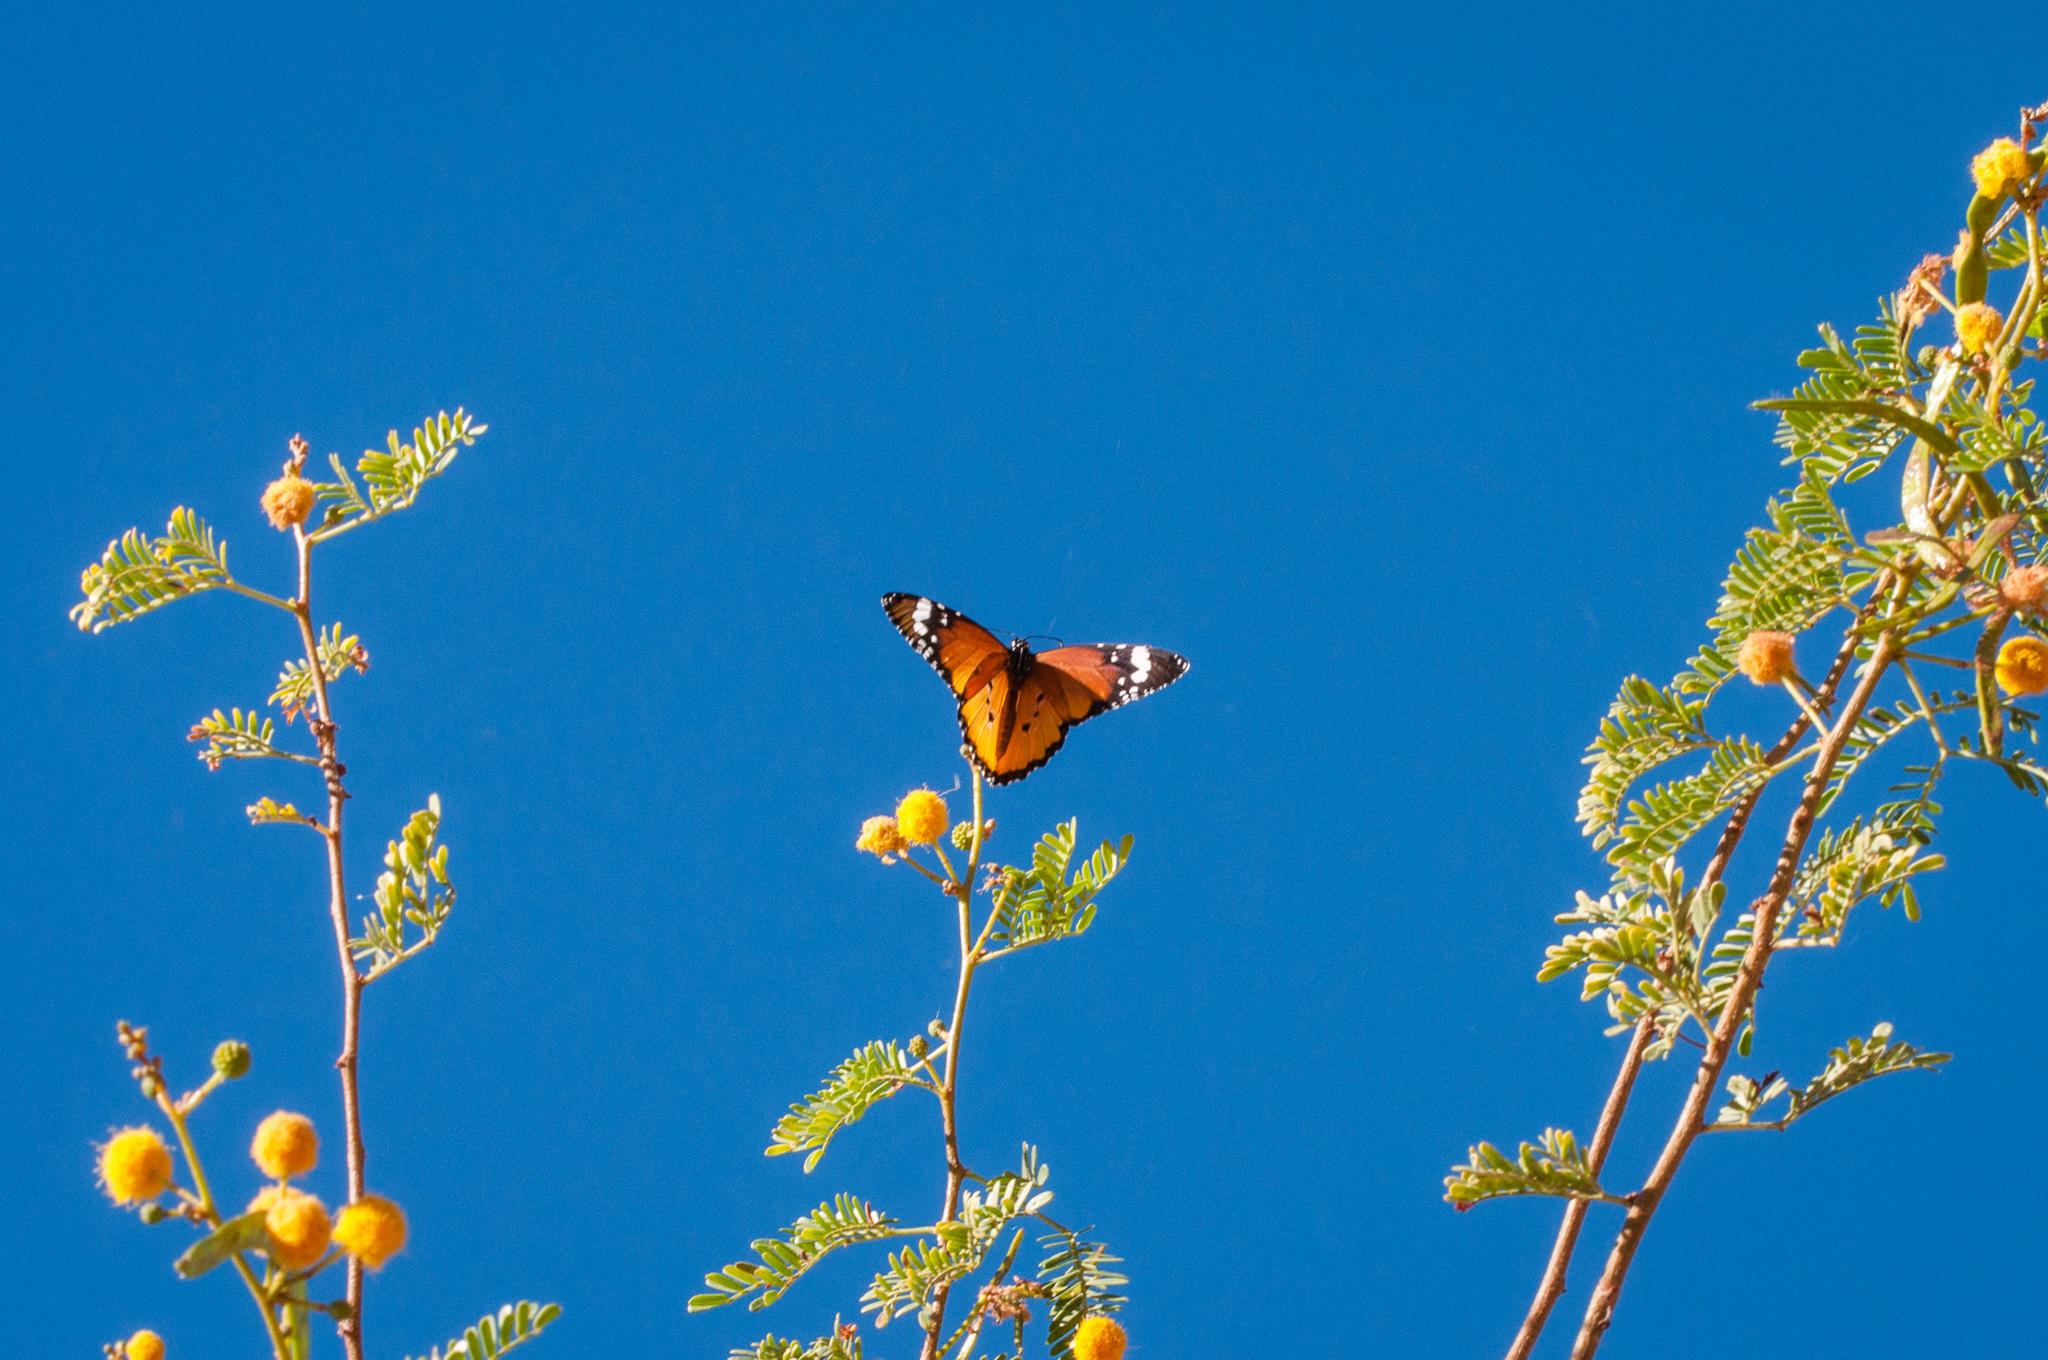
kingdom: Animalia
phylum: Arthropoda
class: Insecta
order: Lepidoptera
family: Nymphalidae
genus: Danaus
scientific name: Danaus chrysippus
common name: Plain tiger
